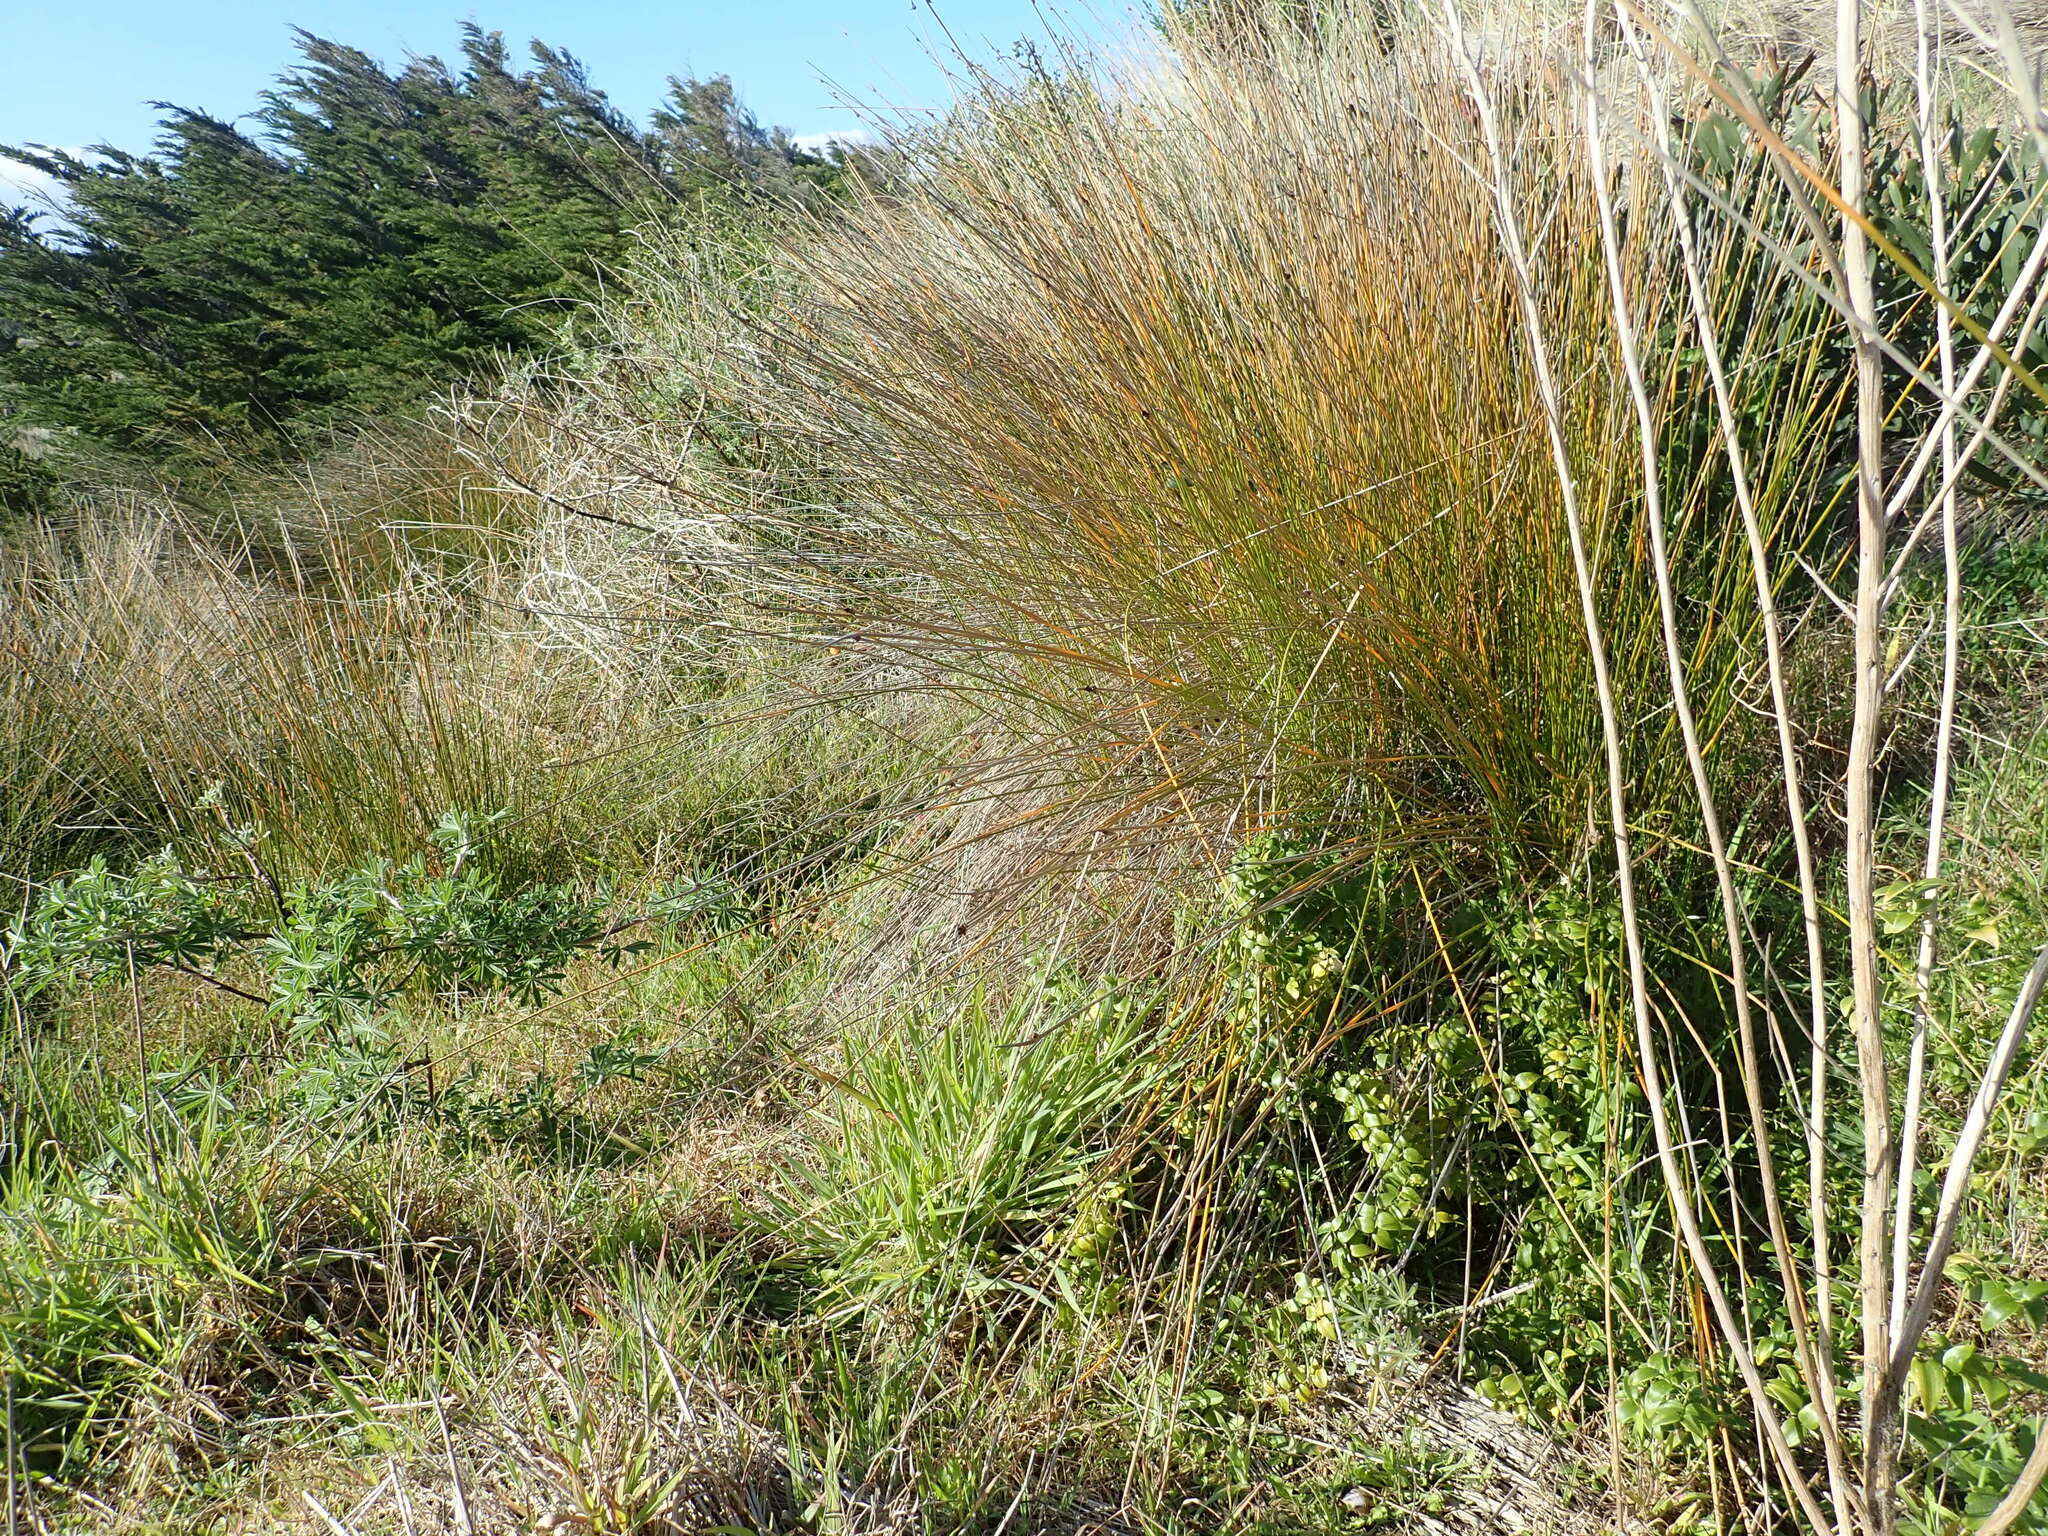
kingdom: Plantae
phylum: Tracheophyta
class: Liliopsida
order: Asparagales
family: Asparagaceae
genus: Asparagus
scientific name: Asparagus asparagoides
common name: African asparagus fern
